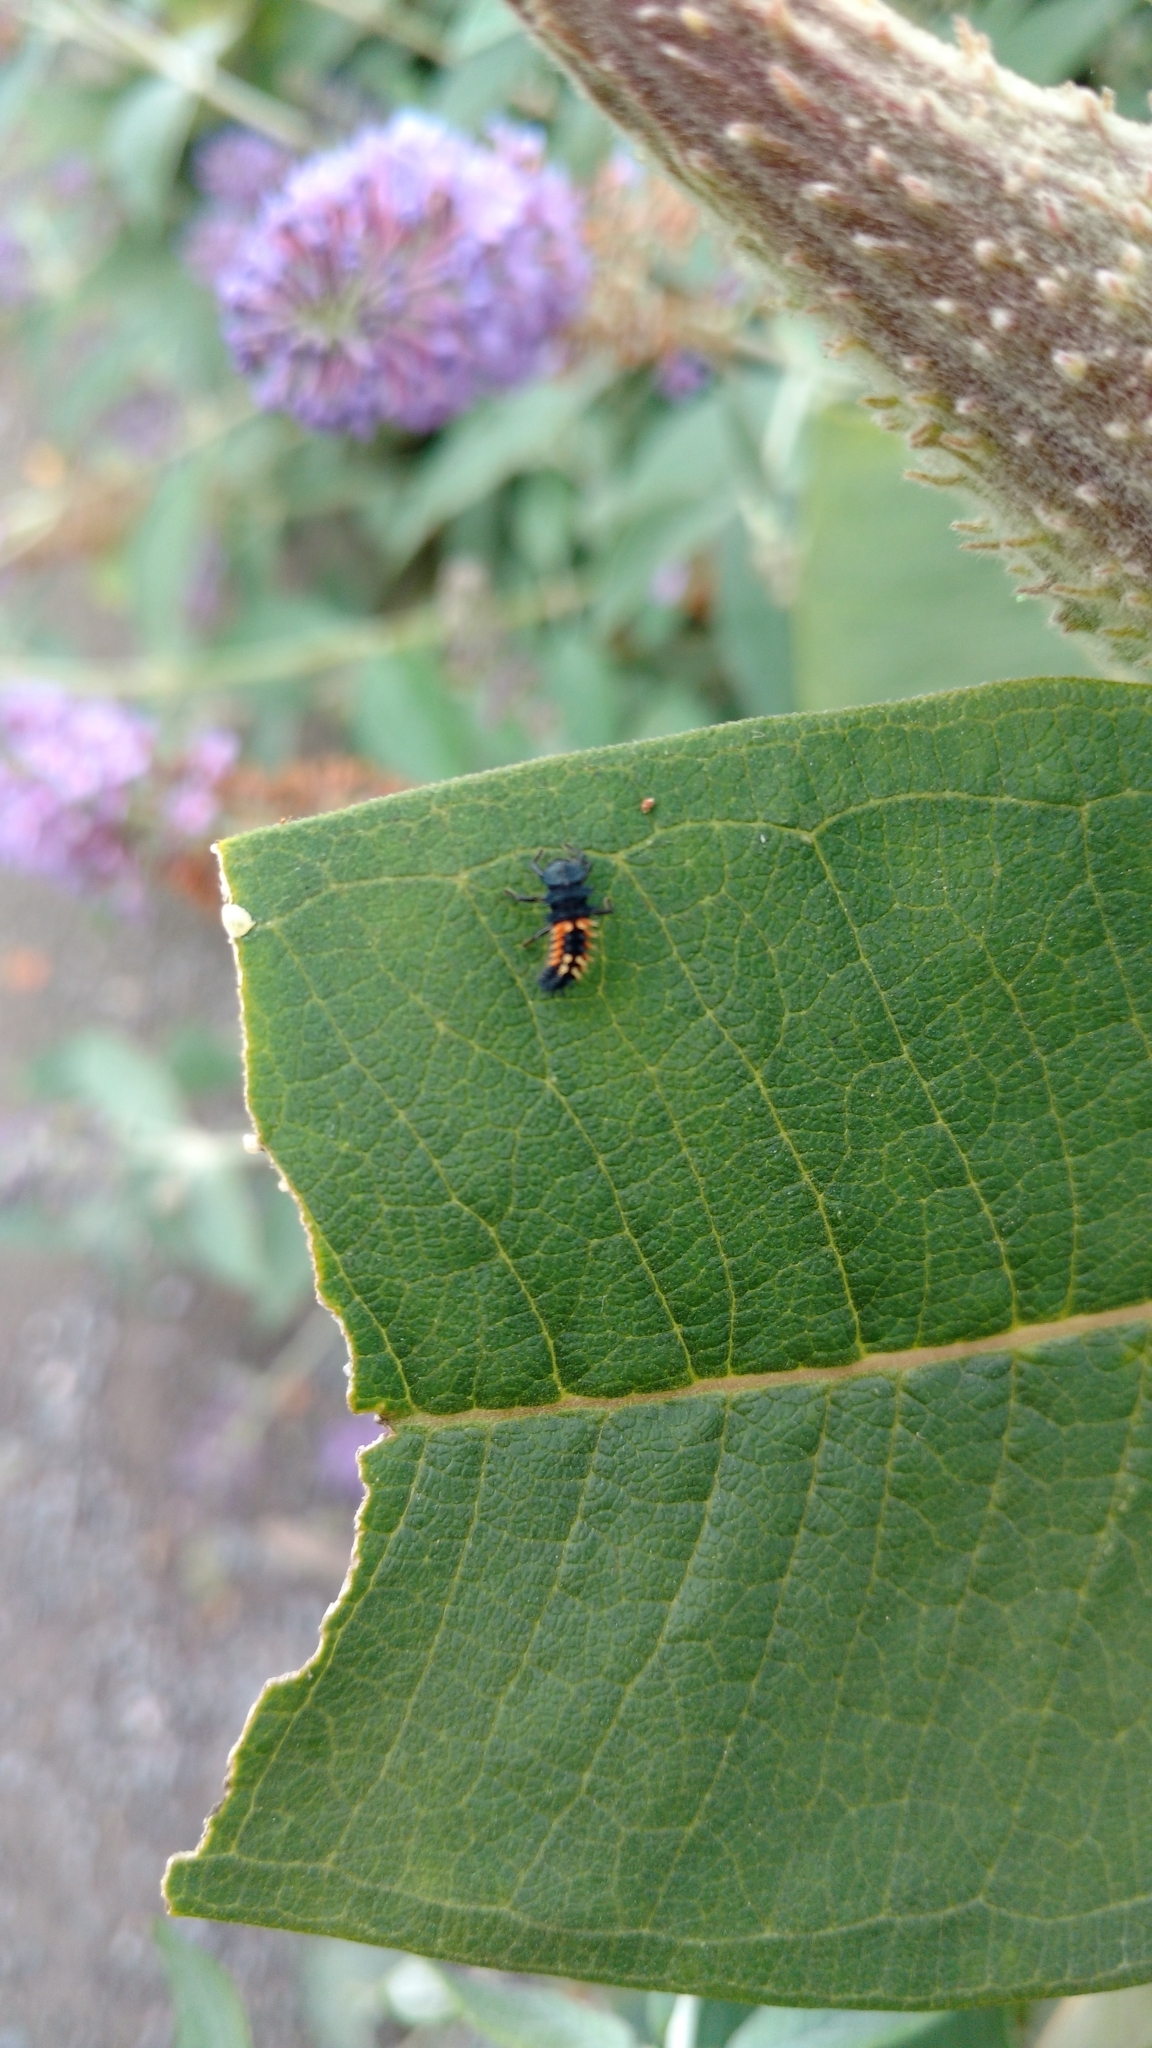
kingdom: Animalia
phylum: Arthropoda
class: Insecta
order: Coleoptera
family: Coccinellidae
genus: Harmonia
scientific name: Harmonia axyridis
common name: Harlequin ladybird
